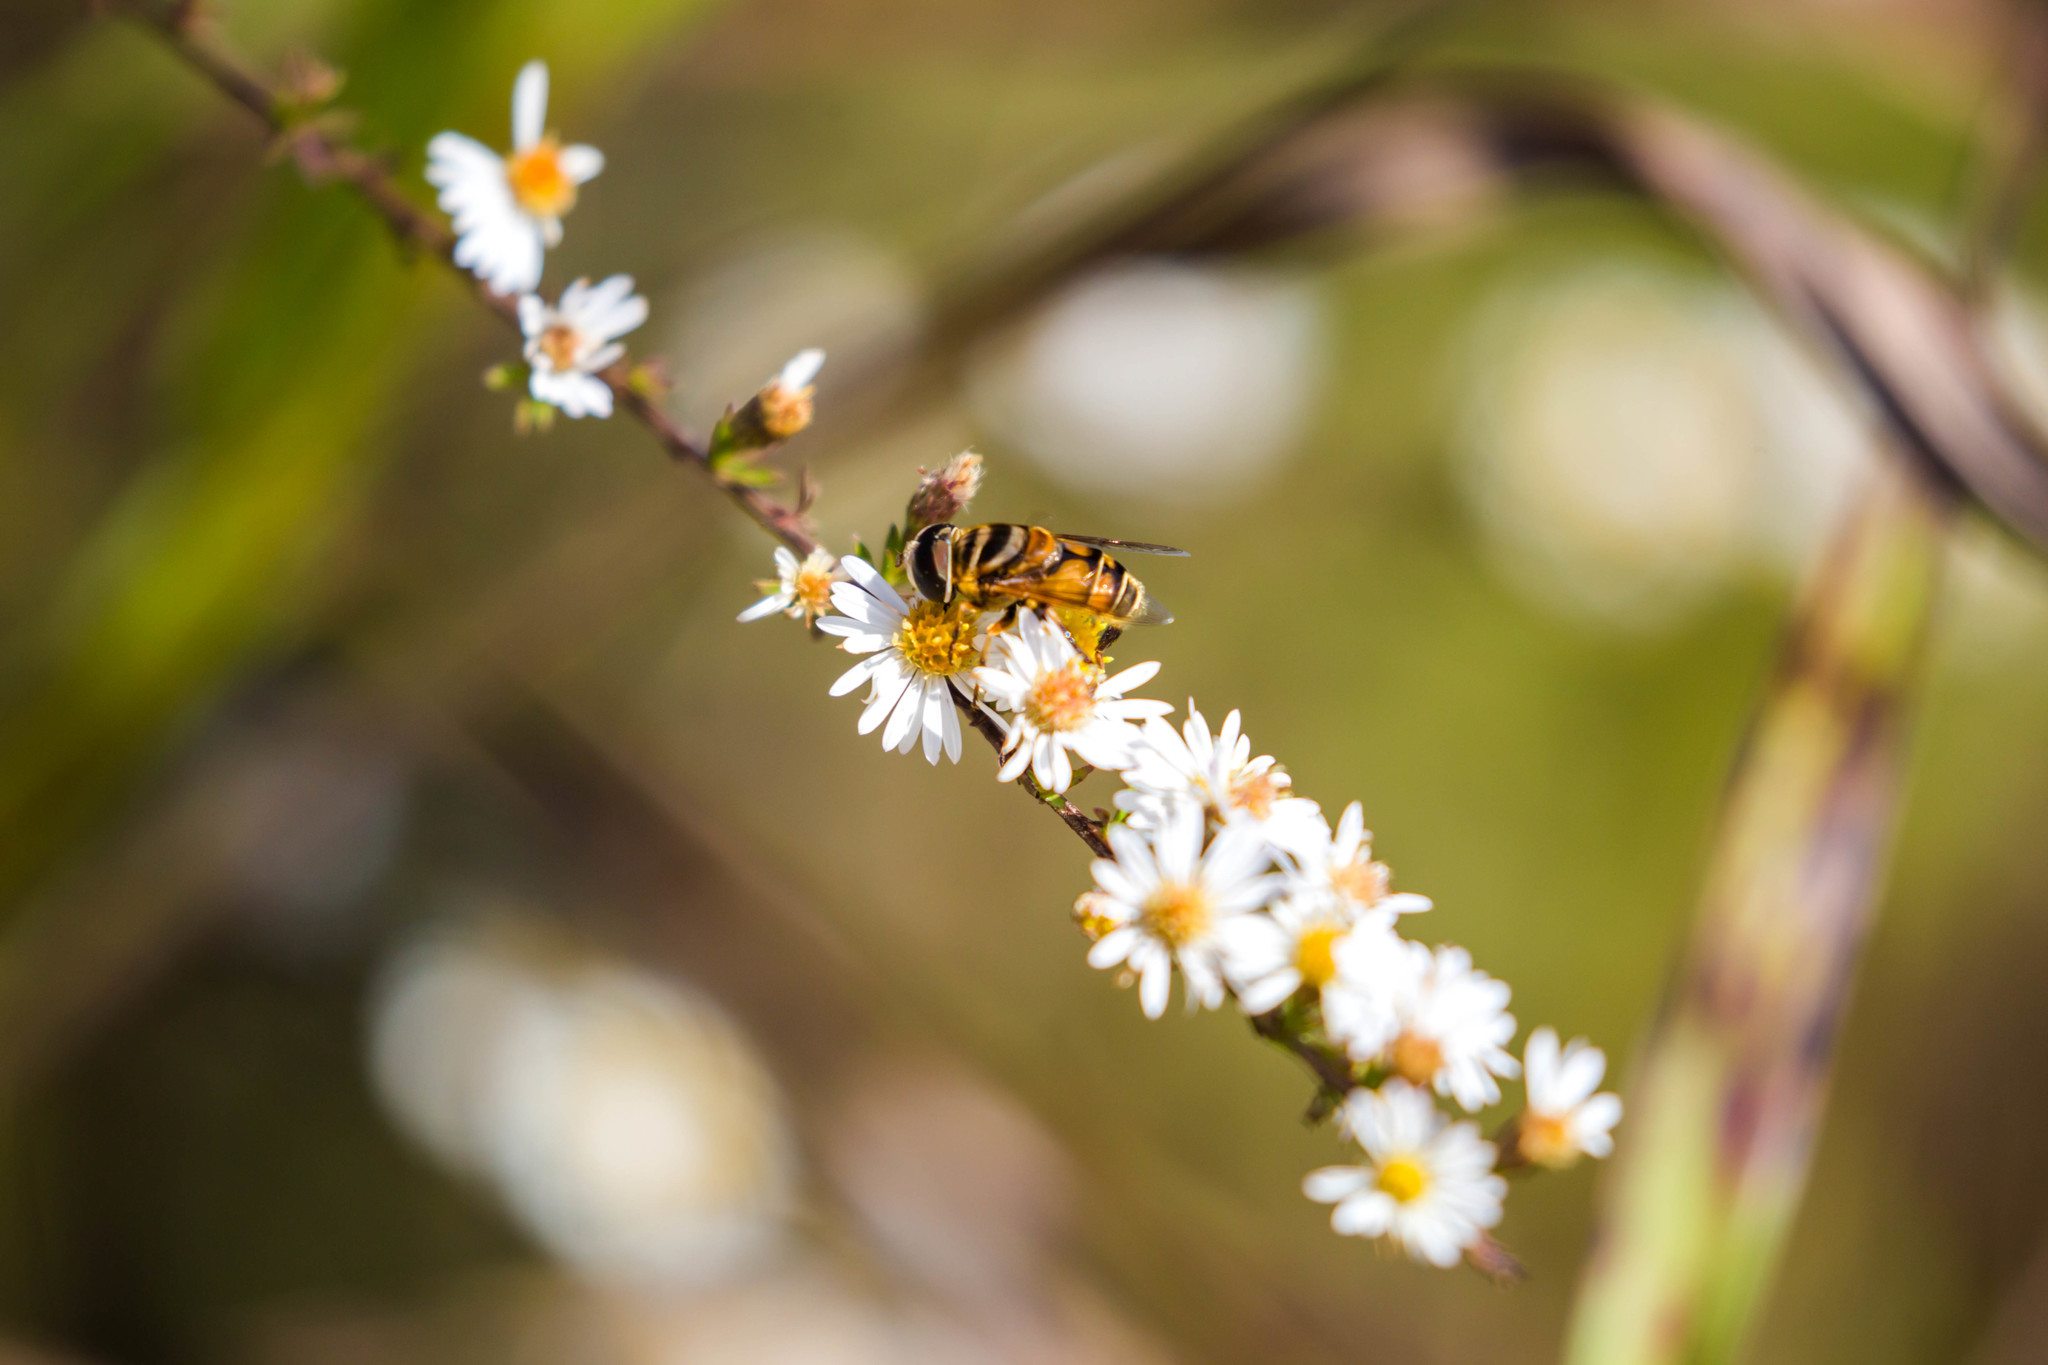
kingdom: Animalia
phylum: Arthropoda
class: Insecta
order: Diptera
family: Syrphidae
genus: Palpada
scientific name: Palpada vinetorum
